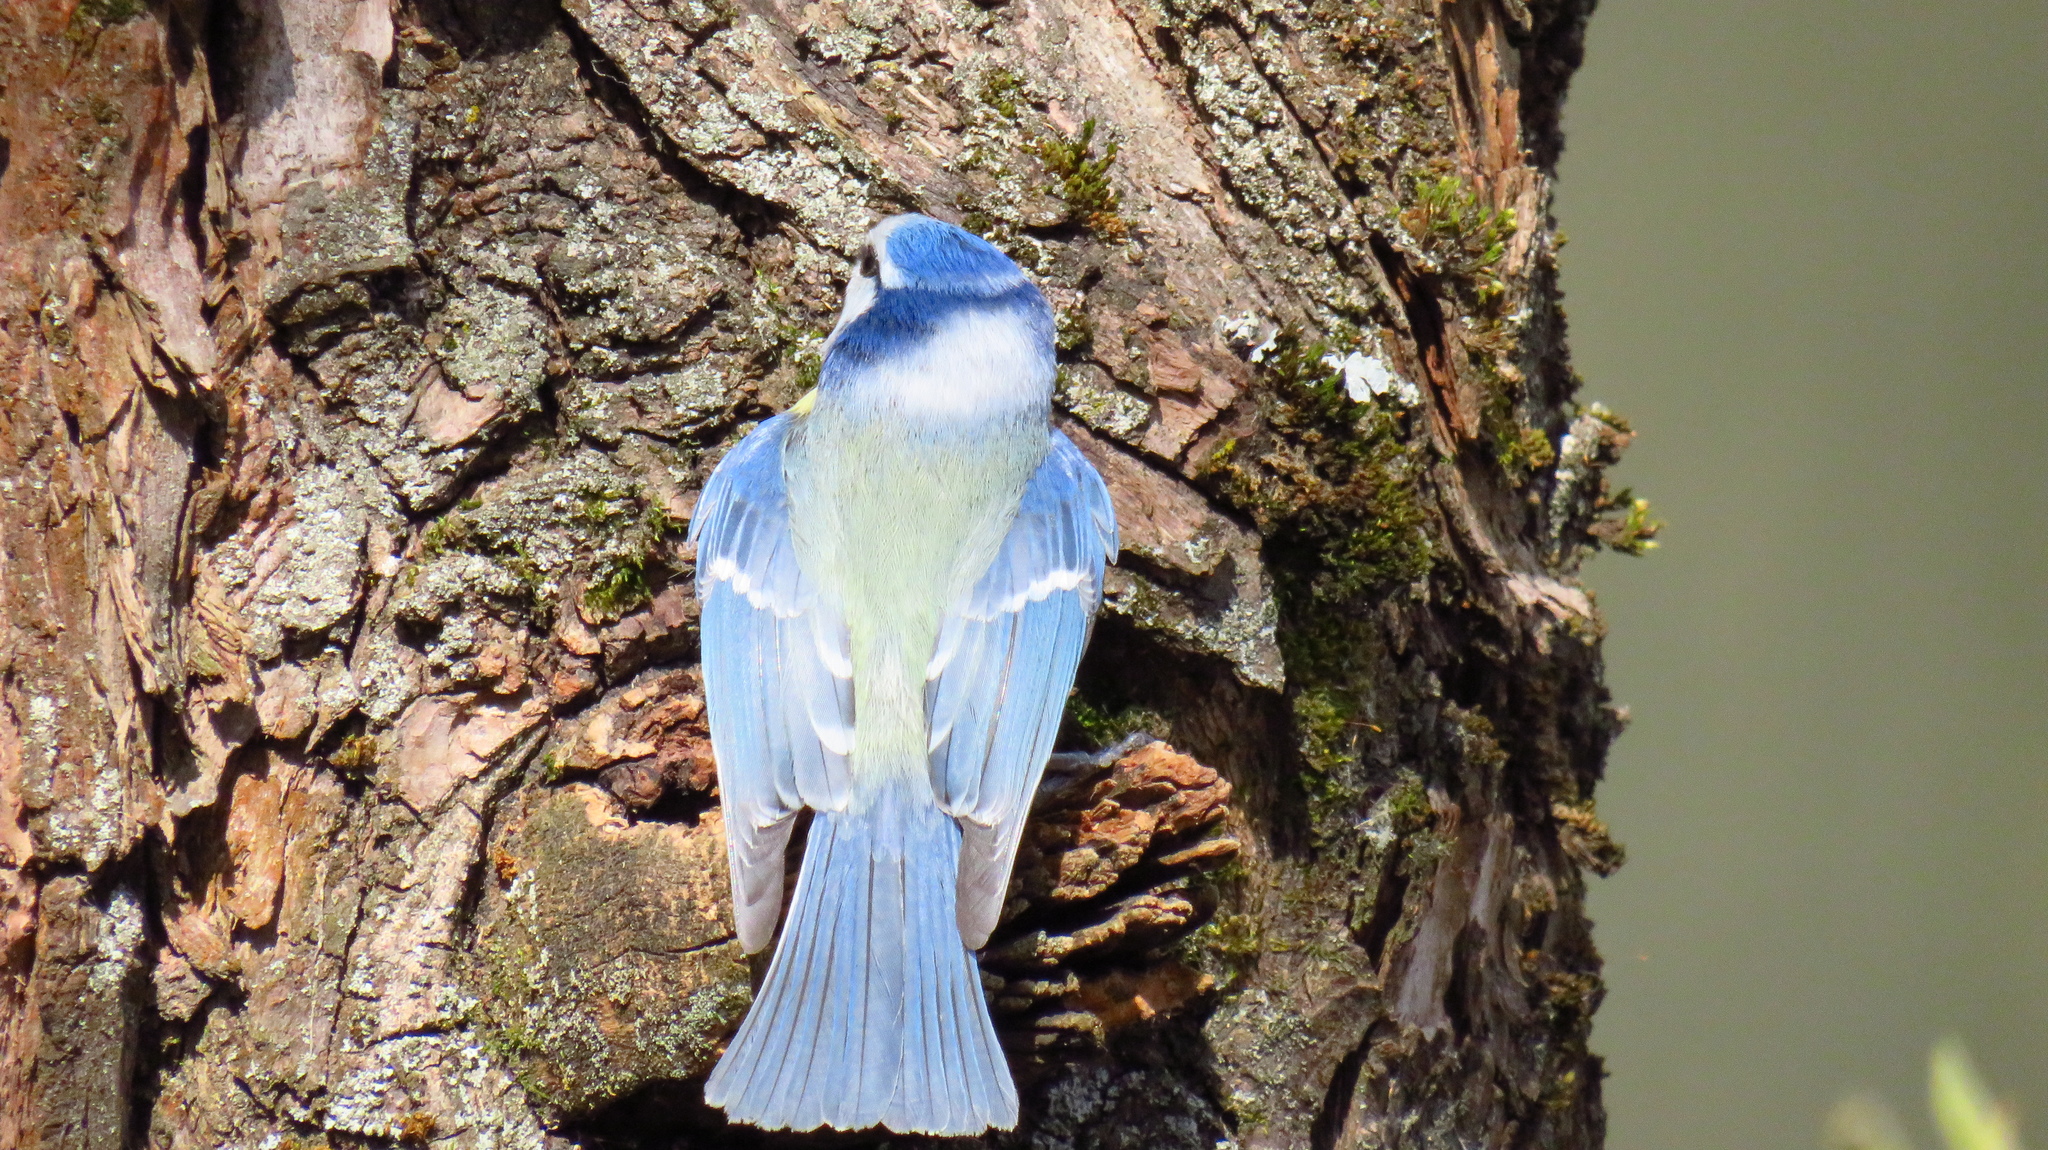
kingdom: Animalia
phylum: Chordata
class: Aves
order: Passeriformes
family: Paridae
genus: Cyanistes
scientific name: Cyanistes caeruleus
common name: Eurasian blue tit
